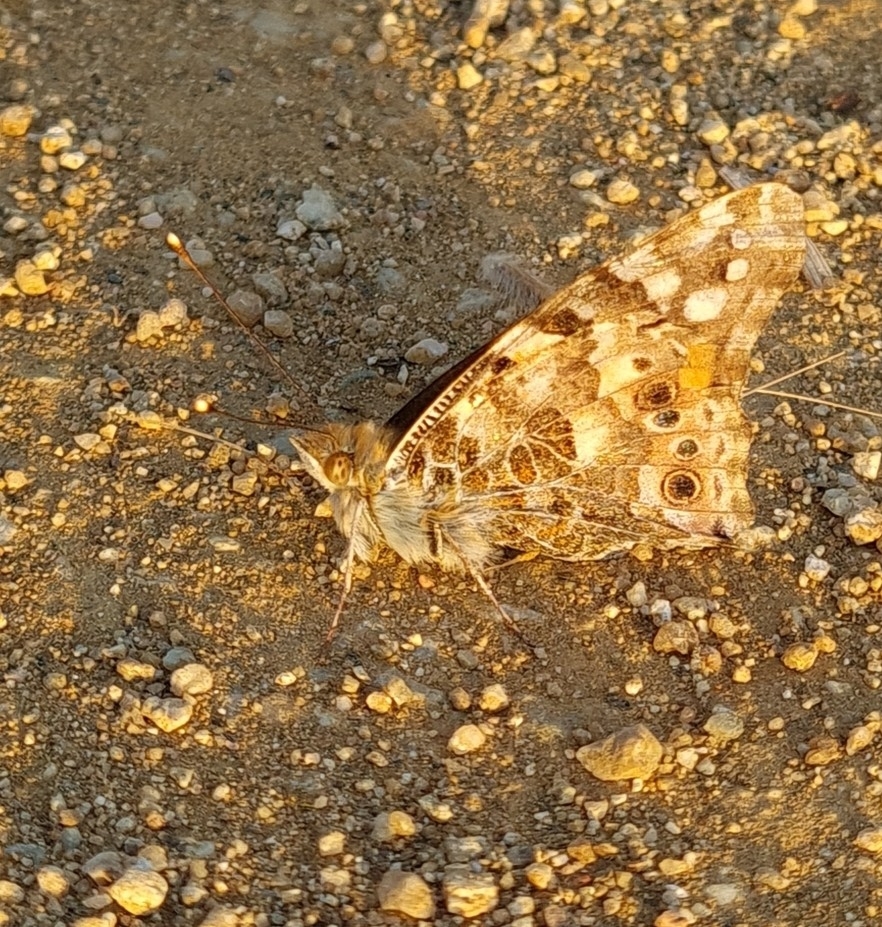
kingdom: Animalia
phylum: Arthropoda
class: Insecta
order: Lepidoptera
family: Nymphalidae
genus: Vanessa
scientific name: Vanessa cardui
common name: Painted lady
